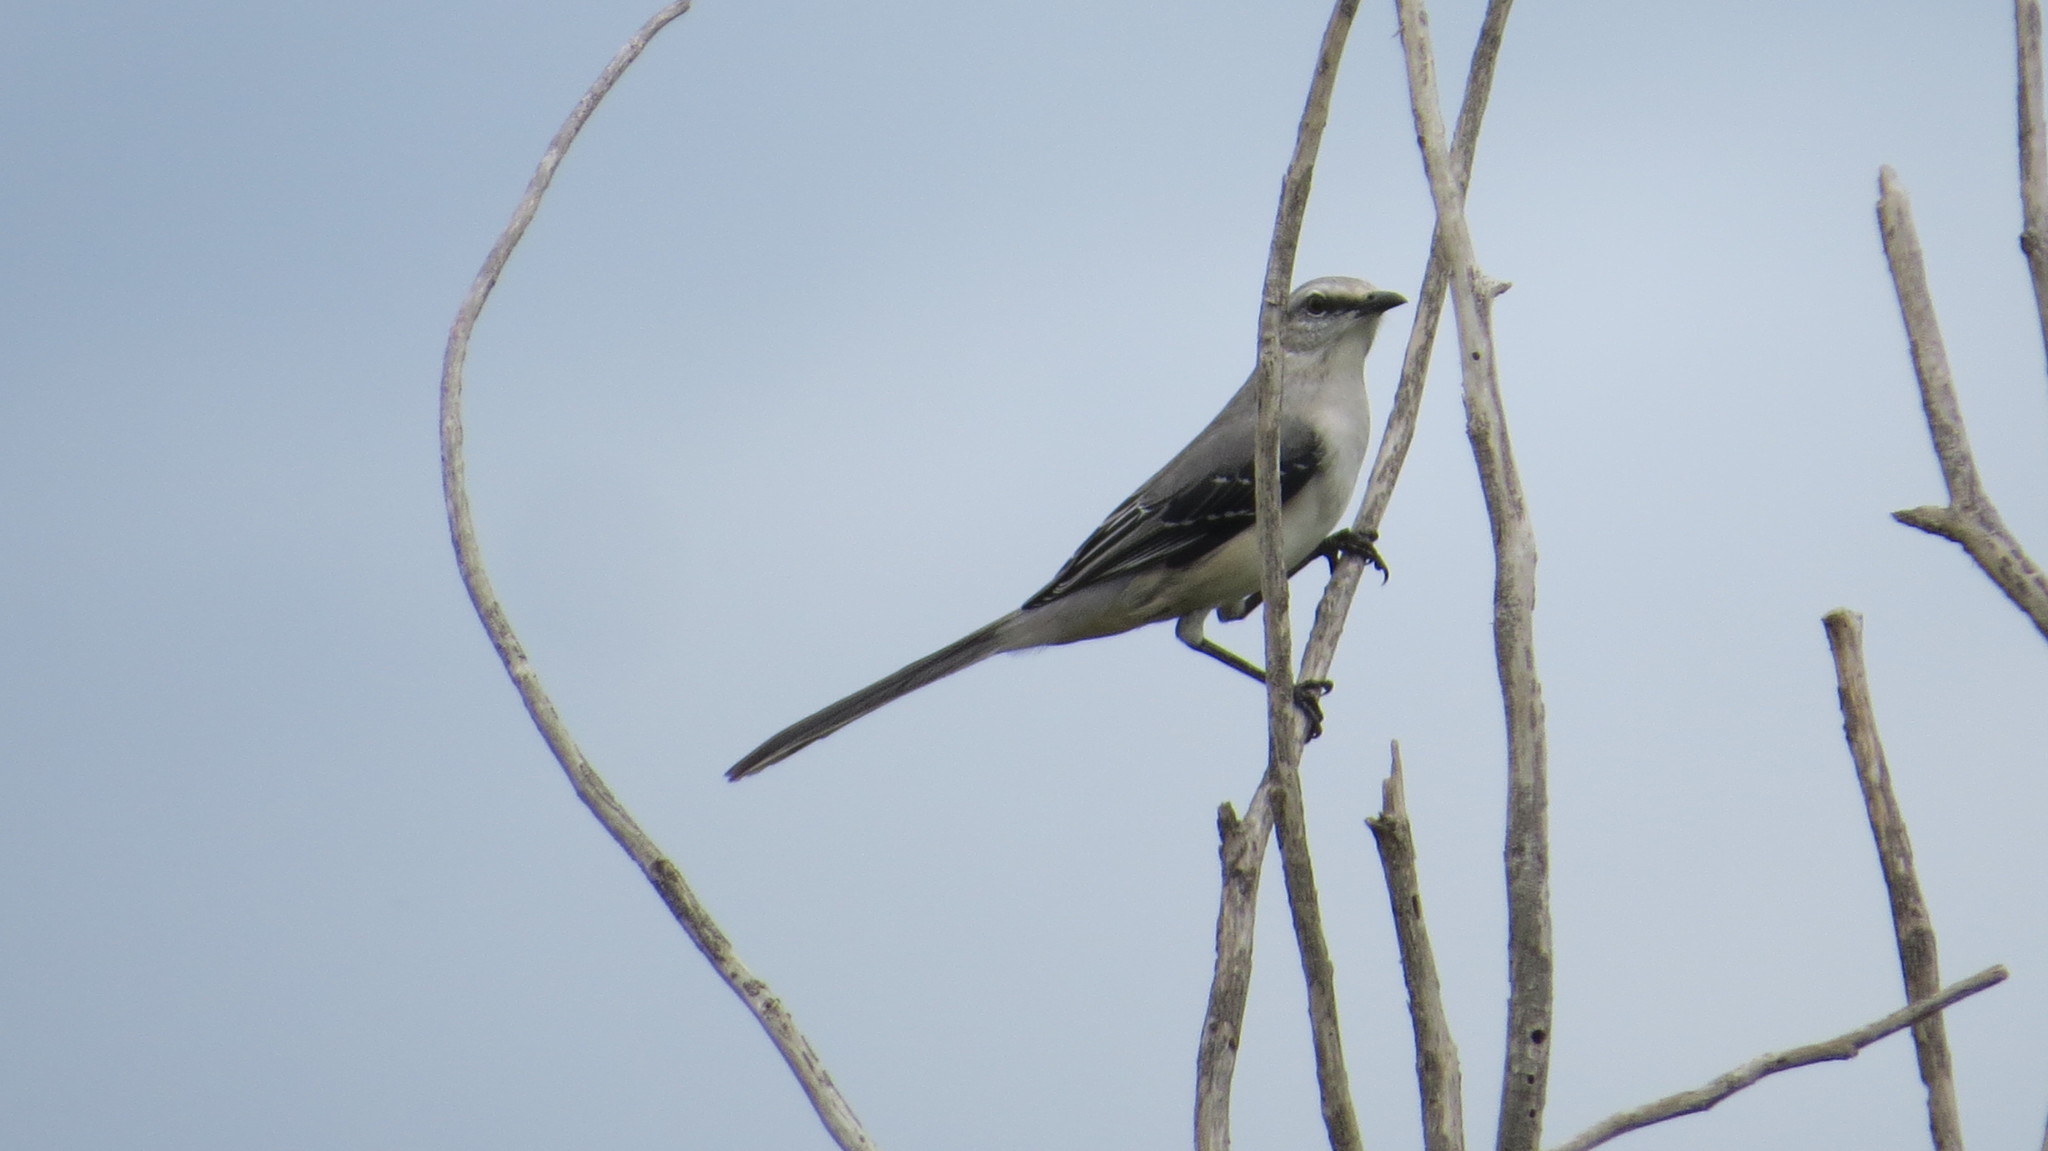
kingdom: Animalia
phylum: Chordata
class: Aves
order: Passeriformes
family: Mimidae
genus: Mimus
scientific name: Mimus gilvus
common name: Tropical mockingbird
